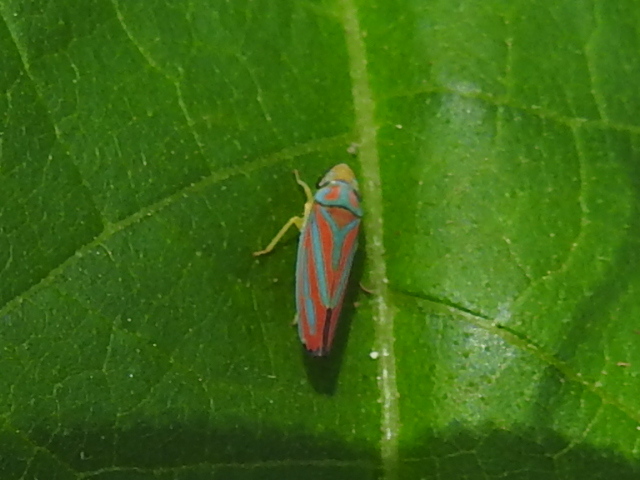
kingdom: Animalia
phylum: Arthropoda
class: Insecta
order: Hemiptera
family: Cicadellidae
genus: Graphocephala
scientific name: Graphocephala coccinea
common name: Candy-striped leafhopper
